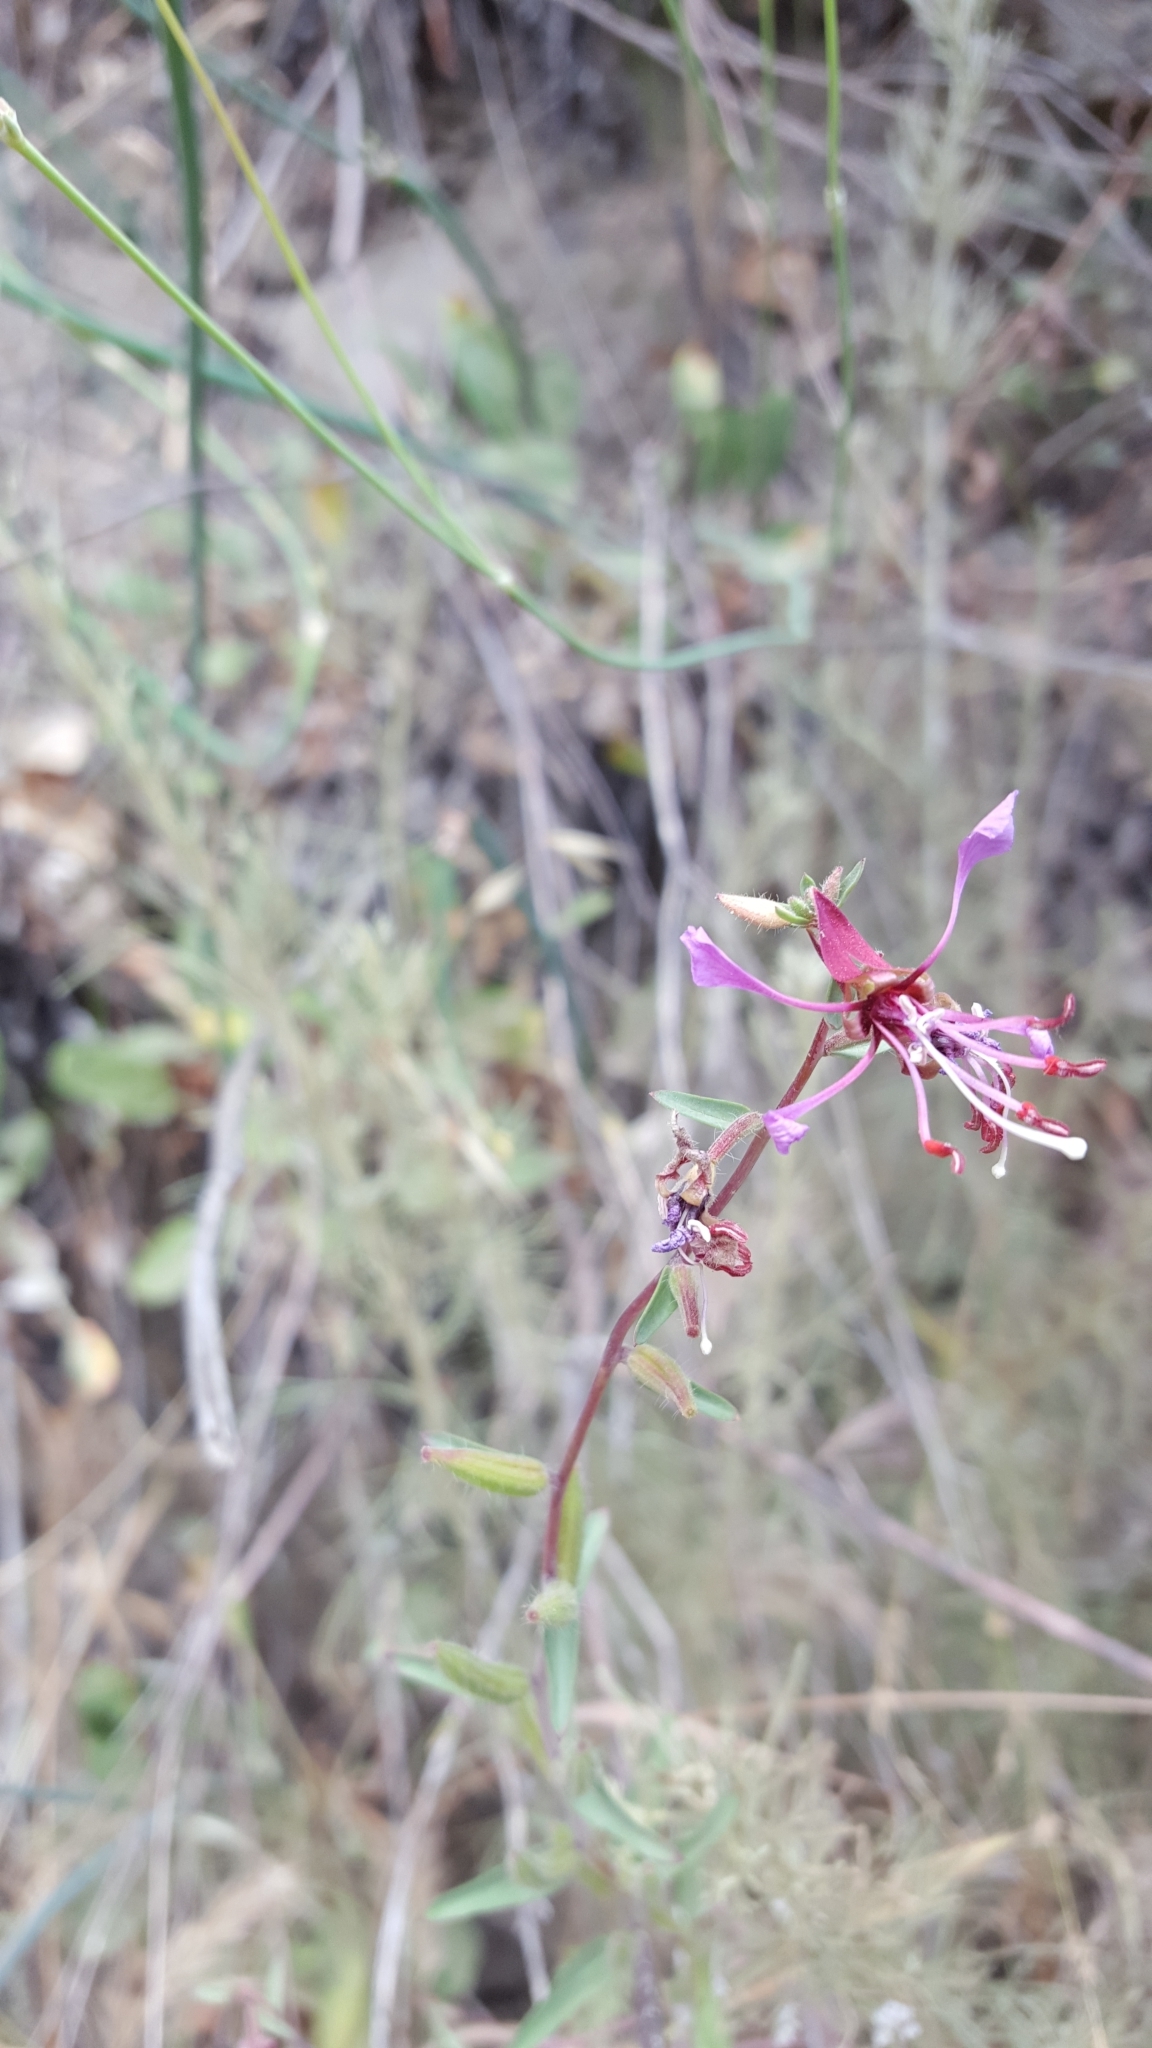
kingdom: Plantae
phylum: Tracheophyta
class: Magnoliopsida
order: Myrtales
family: Onagraceae
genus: Clarkia
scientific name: Clarkia unguiculata
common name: Clarkia
